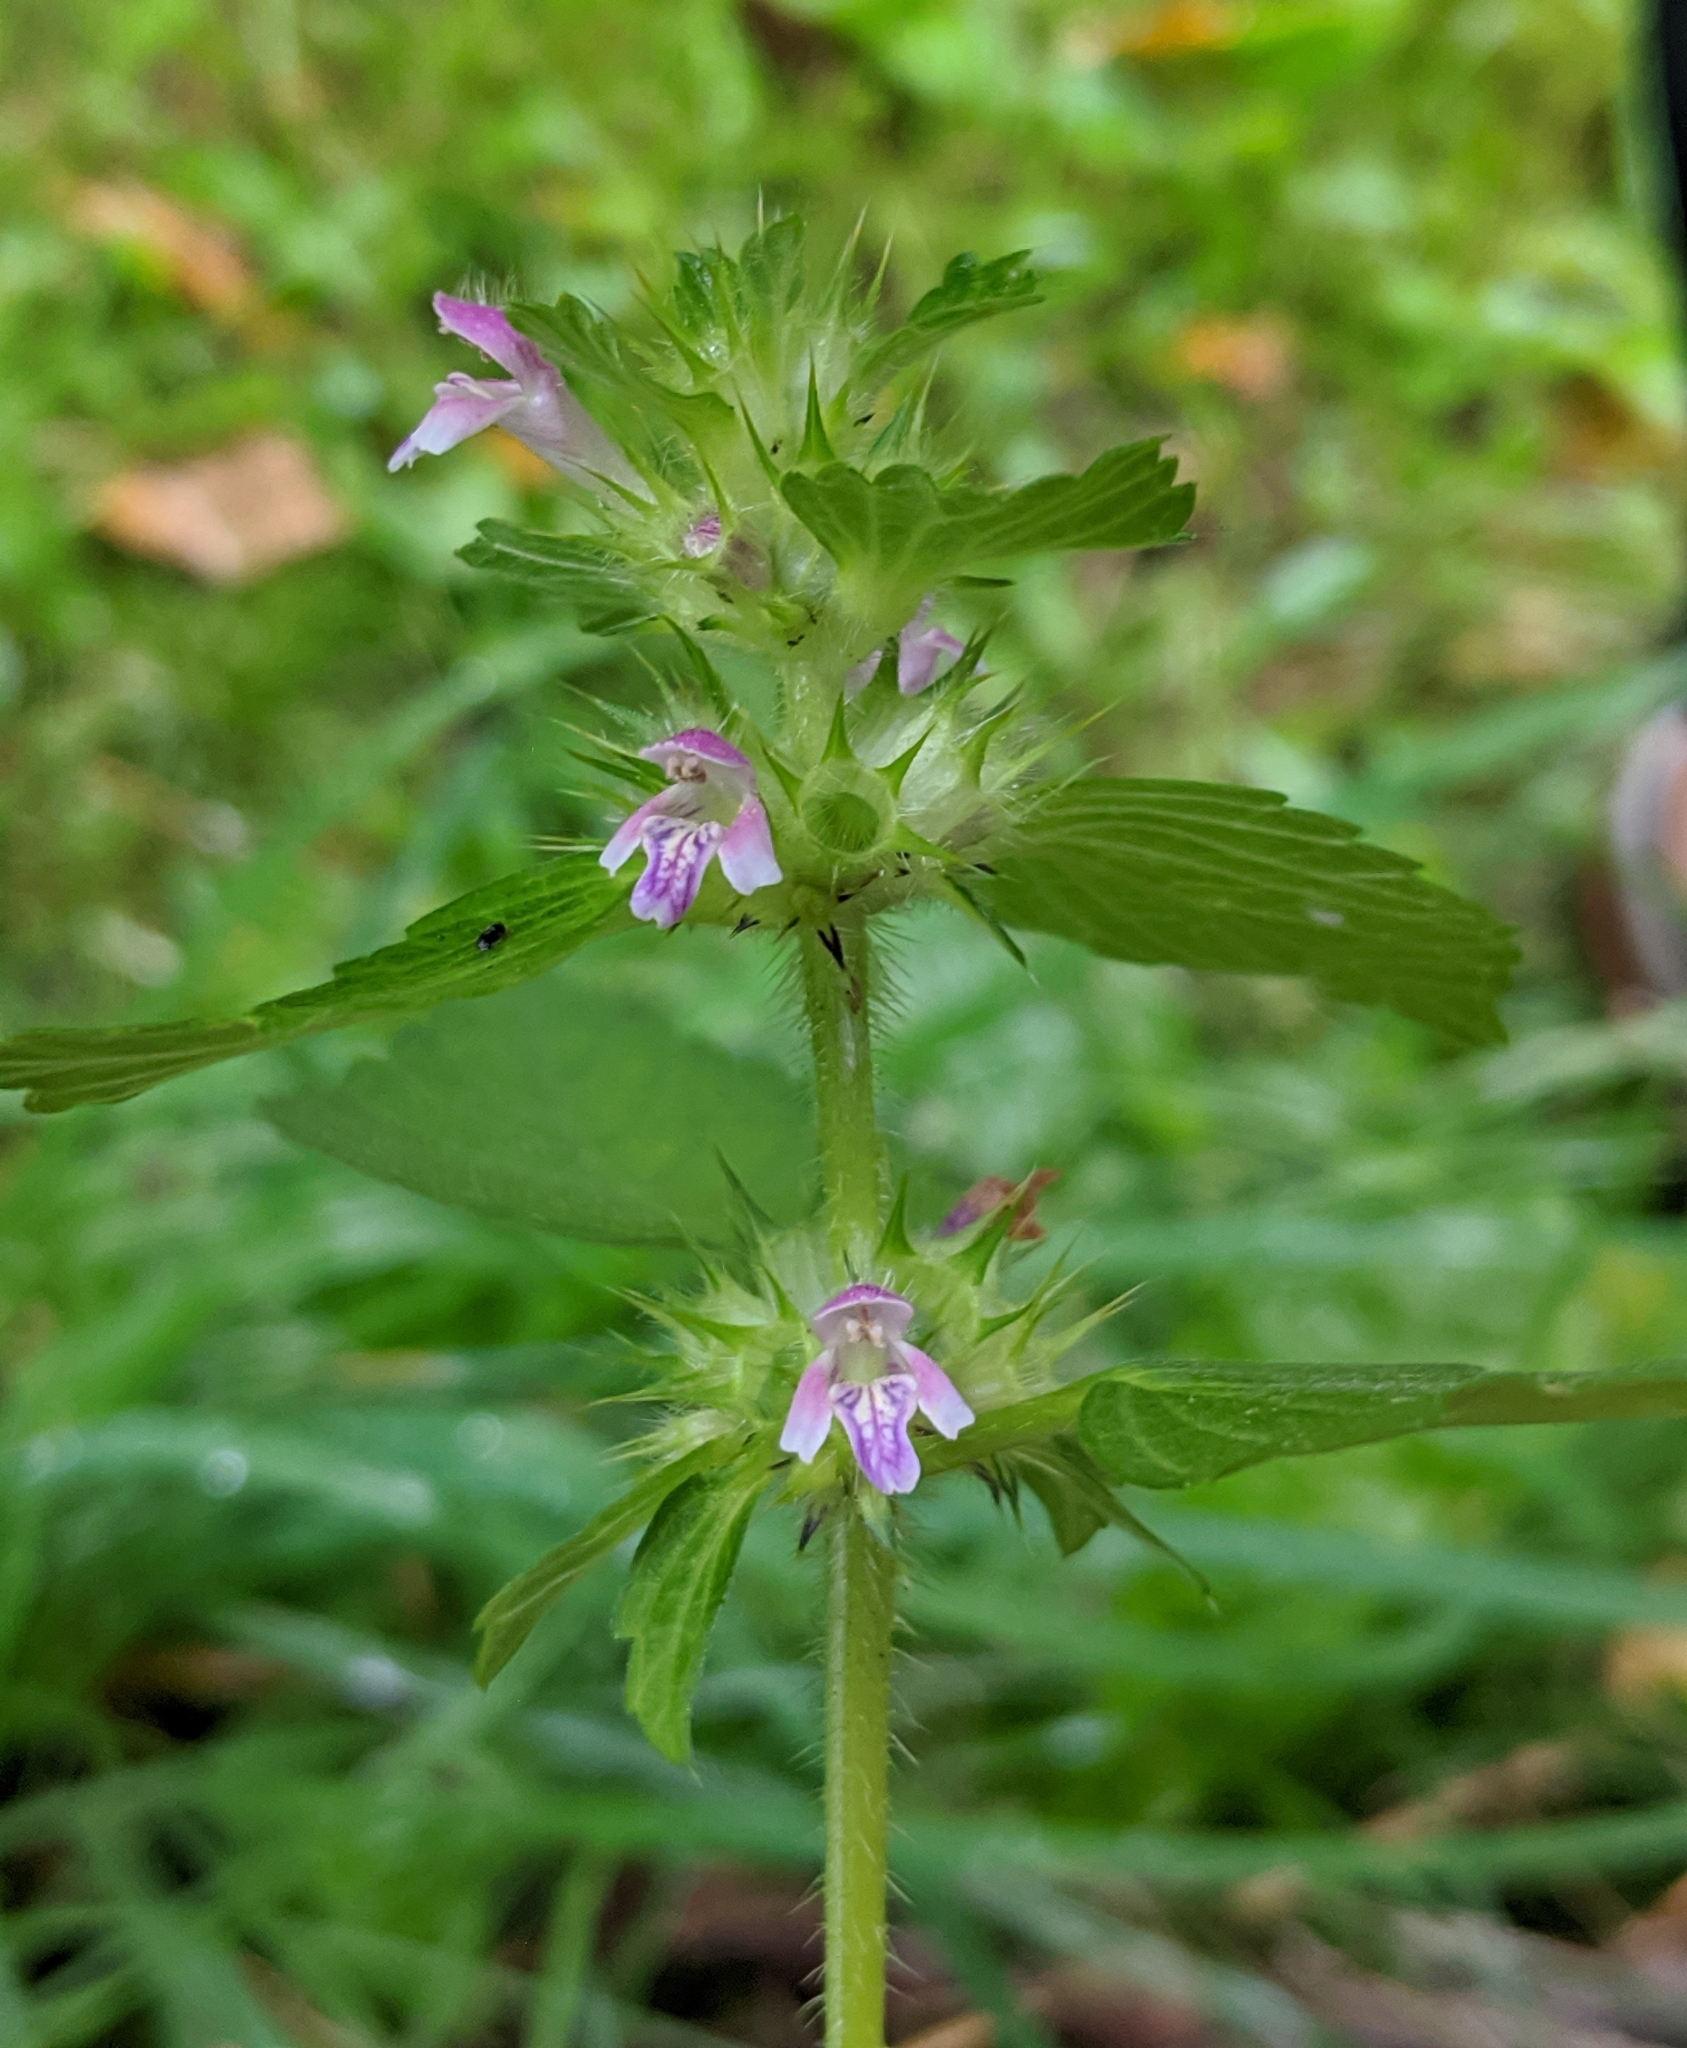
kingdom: Plantae
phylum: Tracheophyta
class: Magnoliopsida
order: Lamiales
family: Lamiaceae
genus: Galeopsis
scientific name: Galeopsis bifida
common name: Bifid hemp-nettle
